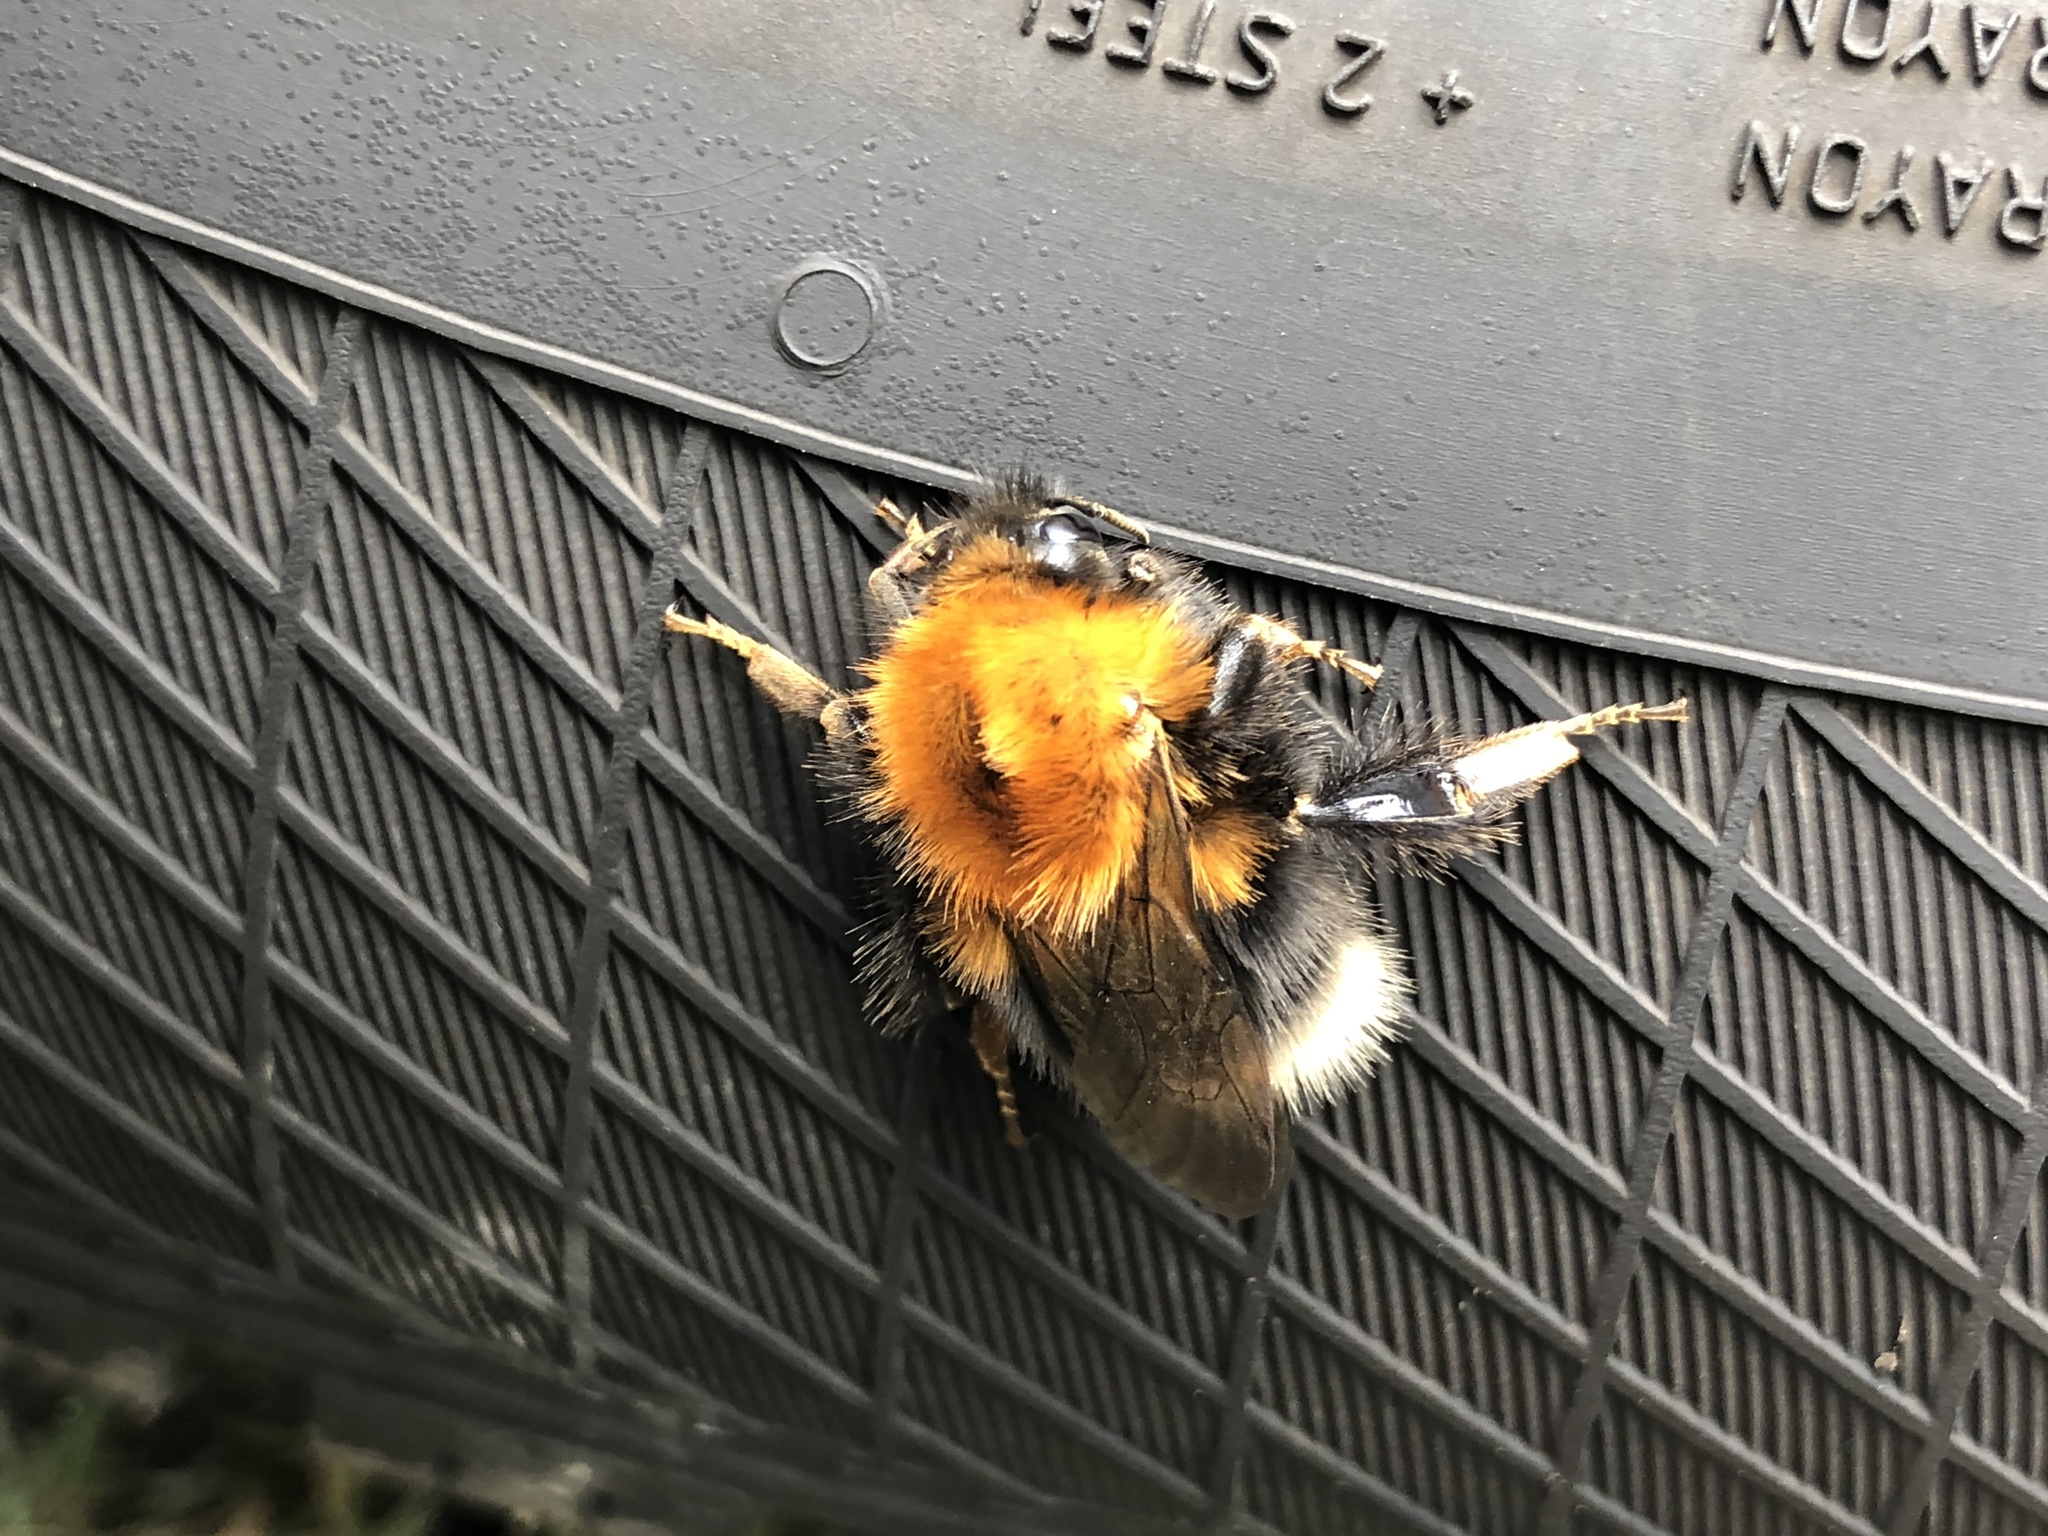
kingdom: Animalia
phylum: Arthropoda
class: Insecta
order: Hymenoptera
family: Apidae
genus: Bombus
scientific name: Bombus hypnorum
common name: New garden bumblebee
